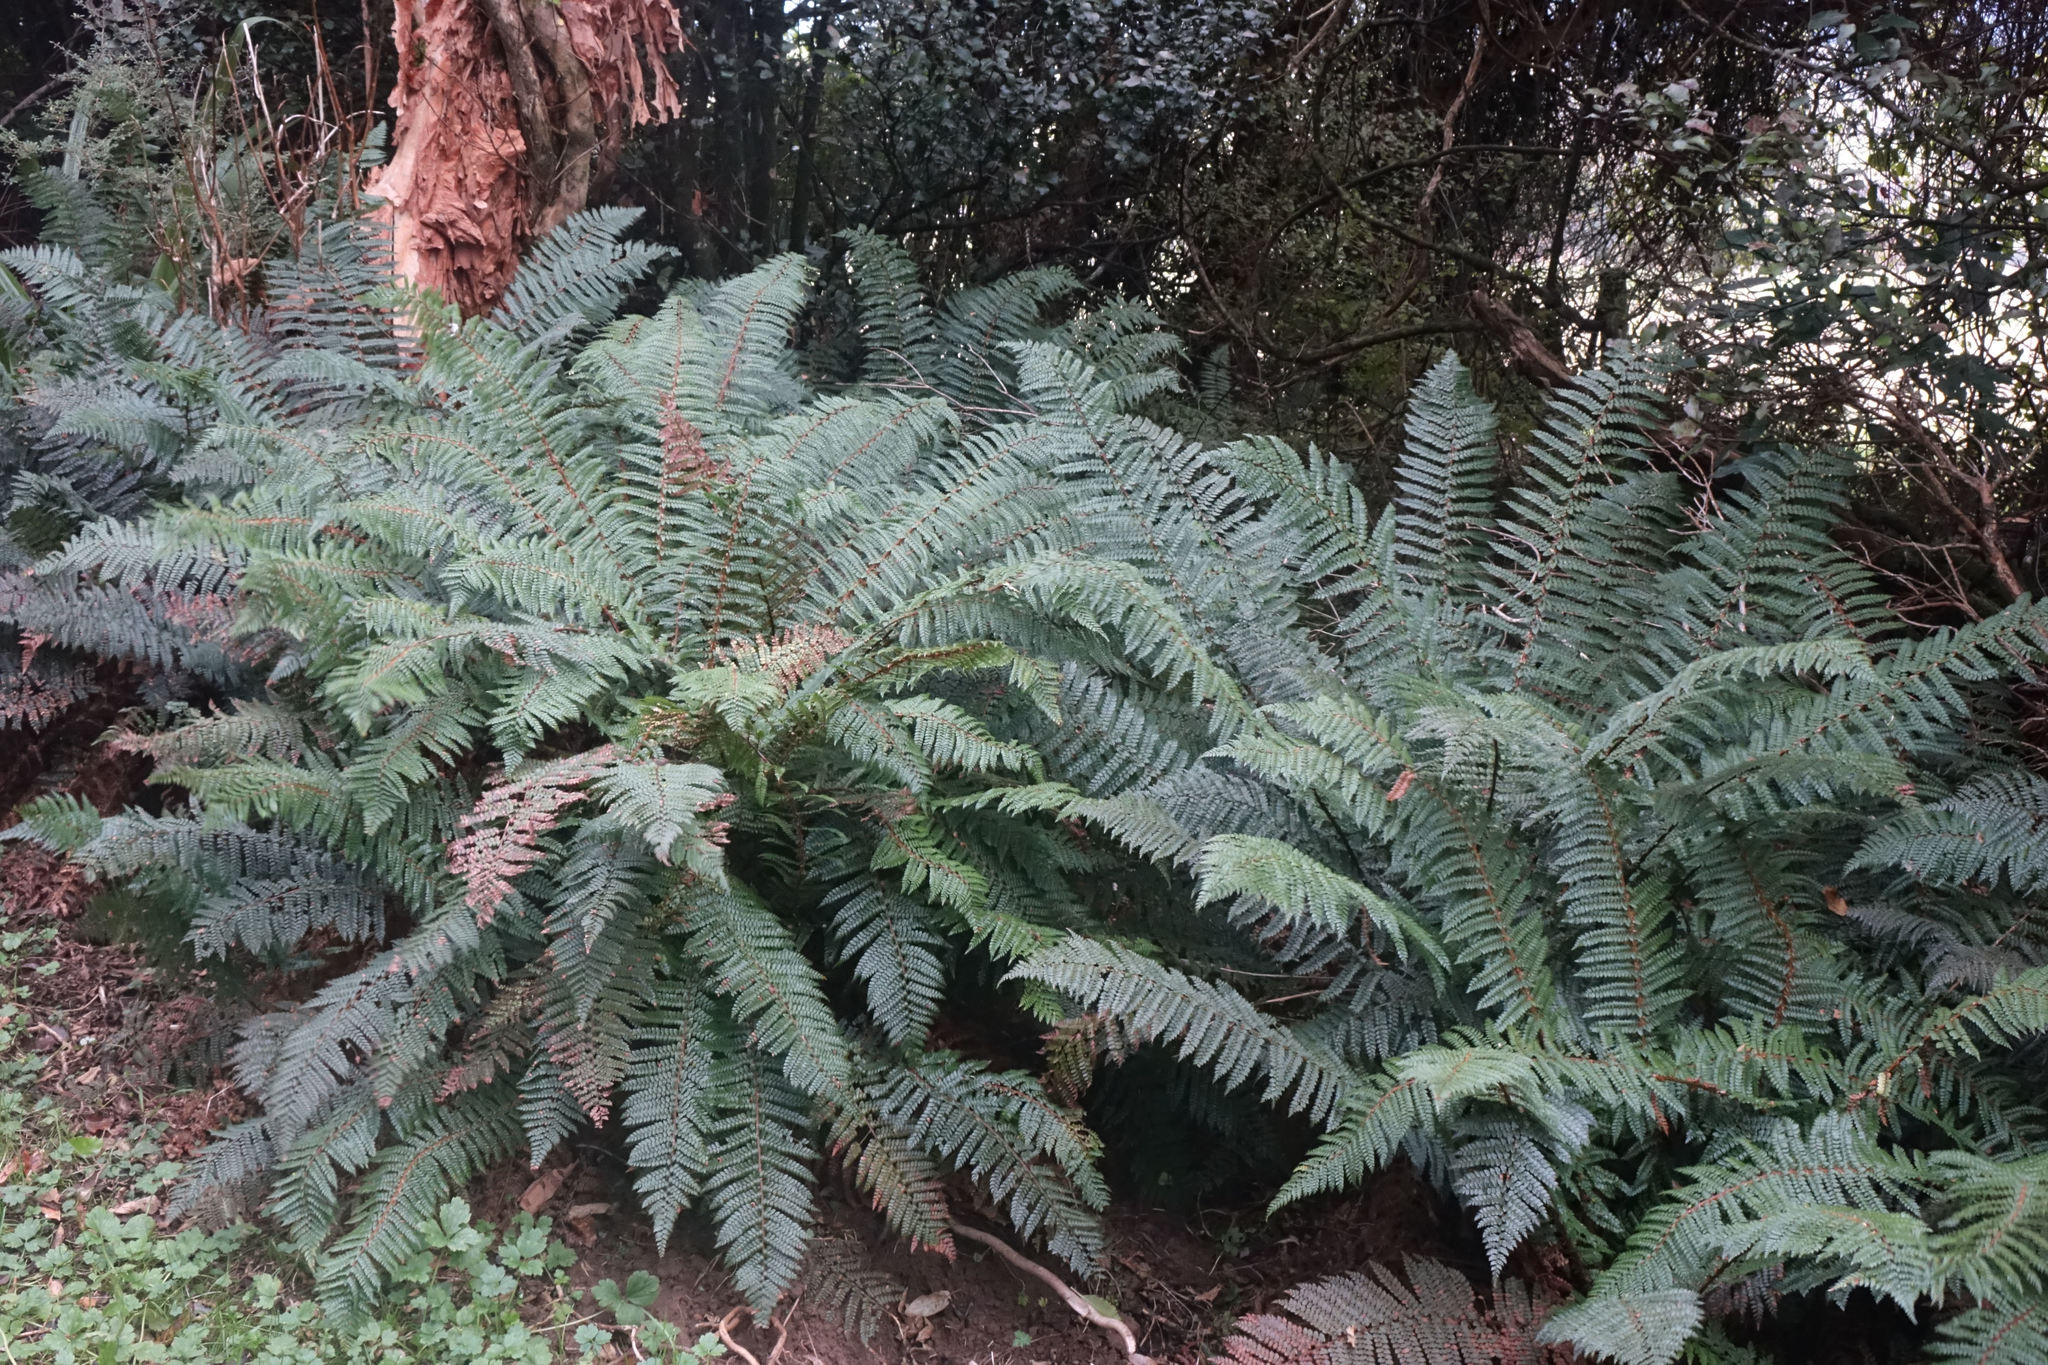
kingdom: Plantae
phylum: Tracheophyta
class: Polypodiopsida
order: Polypodiales
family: Dryopteridaceae
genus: Polystichum
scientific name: Polystichum vestitum
